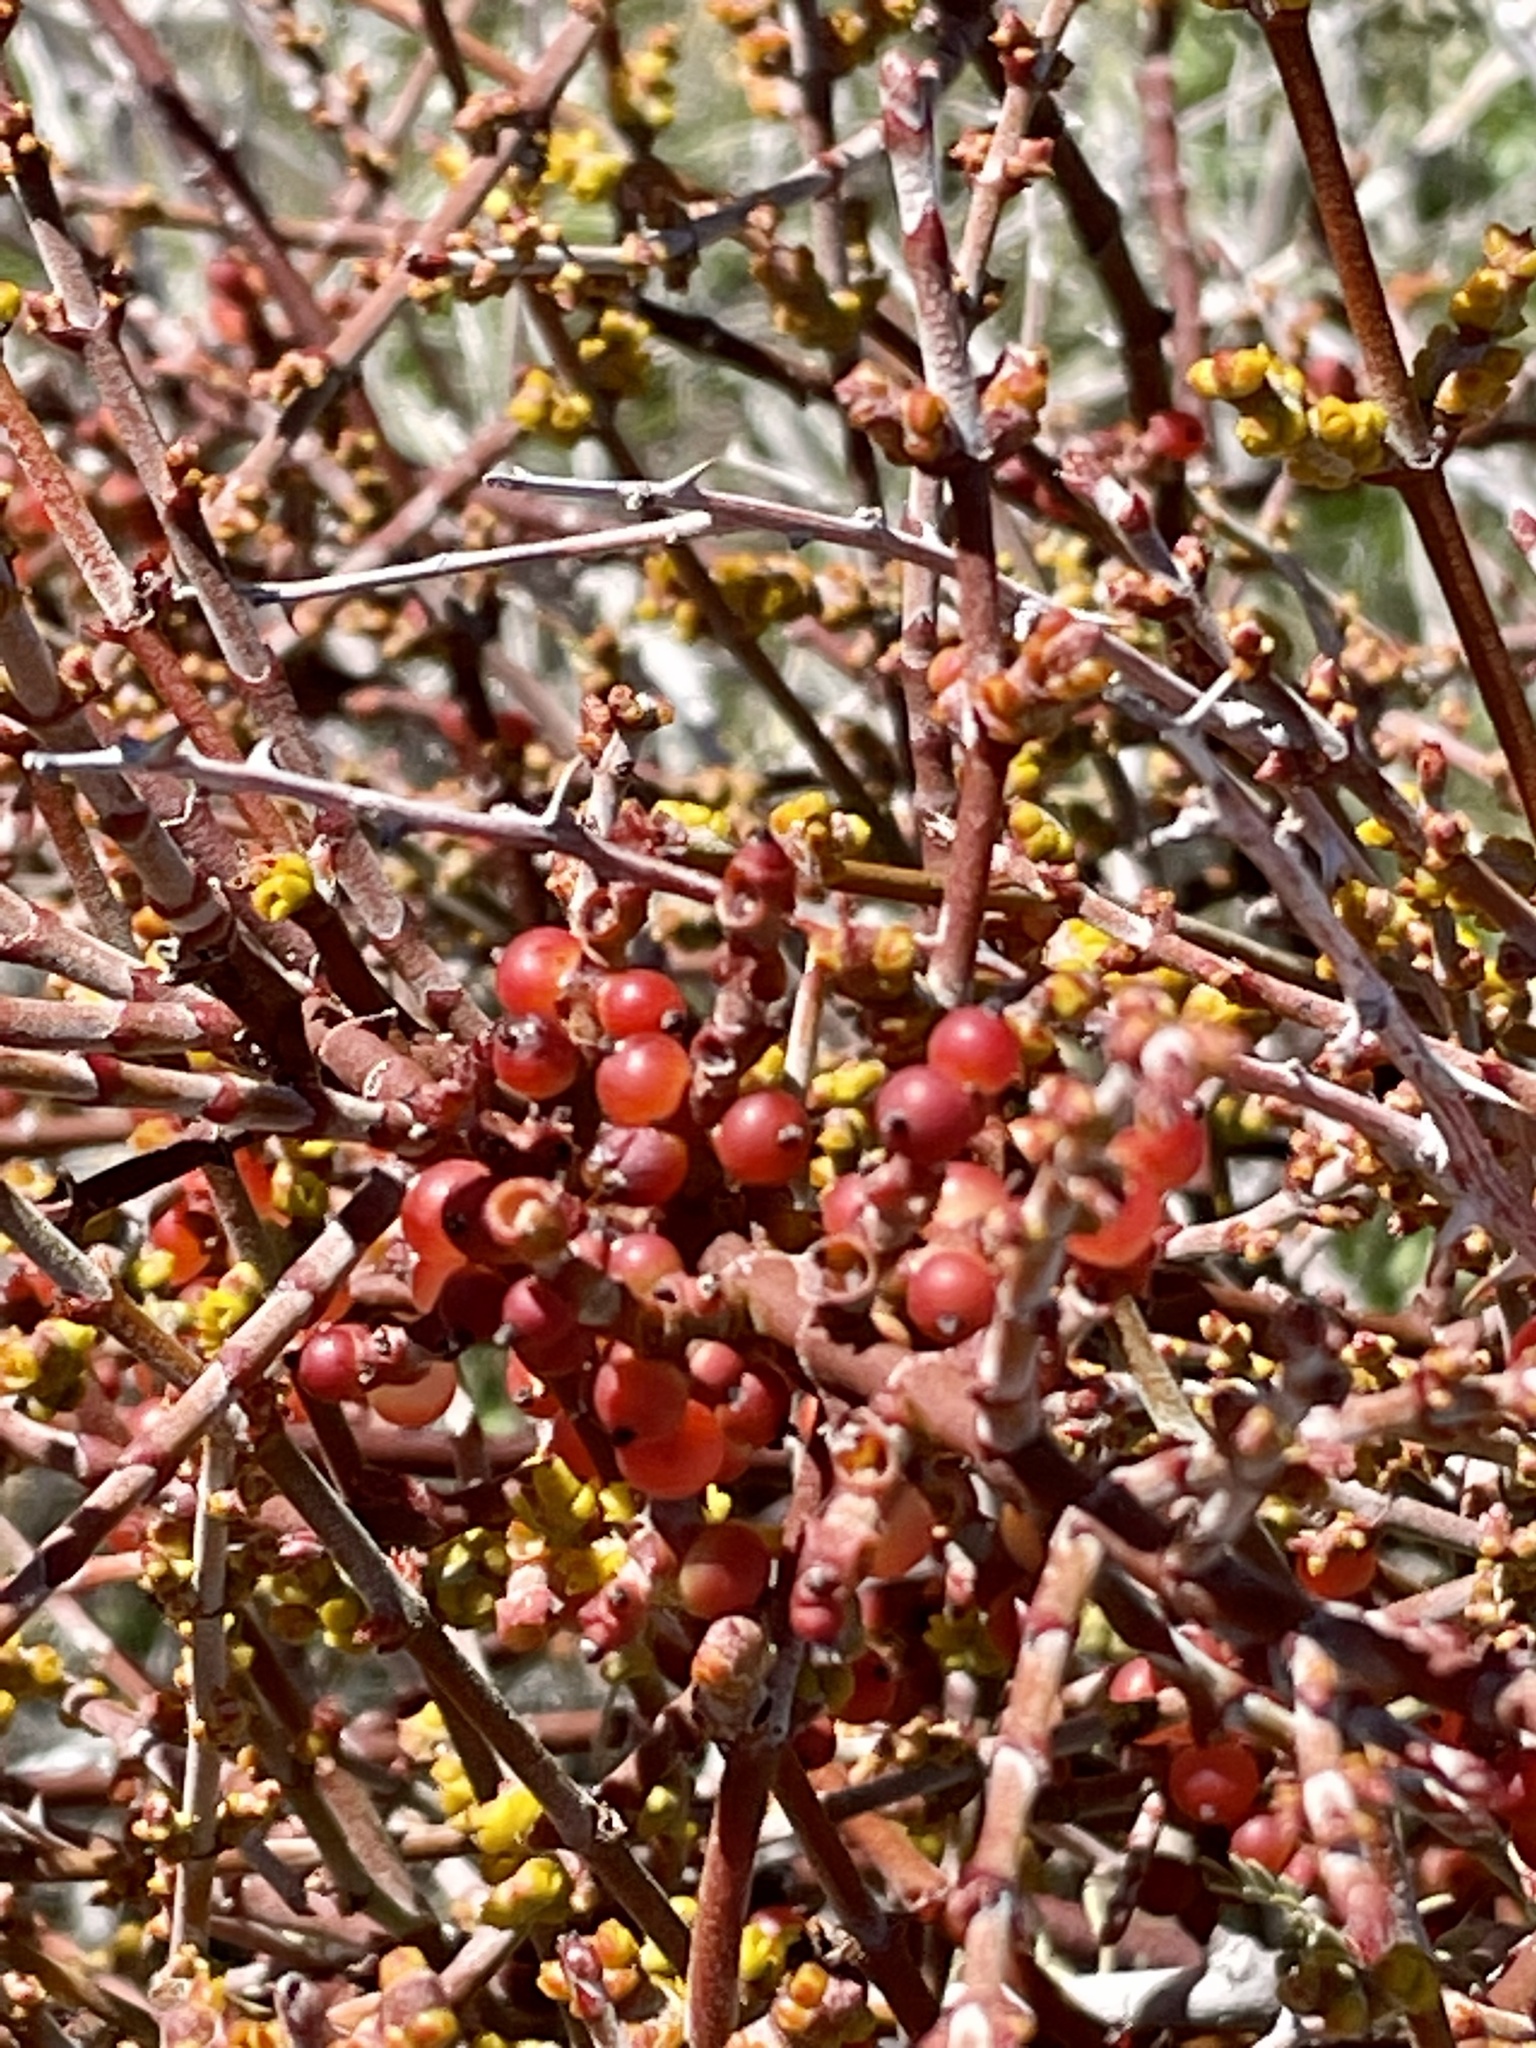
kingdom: Plantae
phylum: Tracheophyta
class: Magnoliopsida
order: Santalales
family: Viscaceae
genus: Phoradendron
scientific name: Phoradendron californicum
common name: Acacia mistletoe
